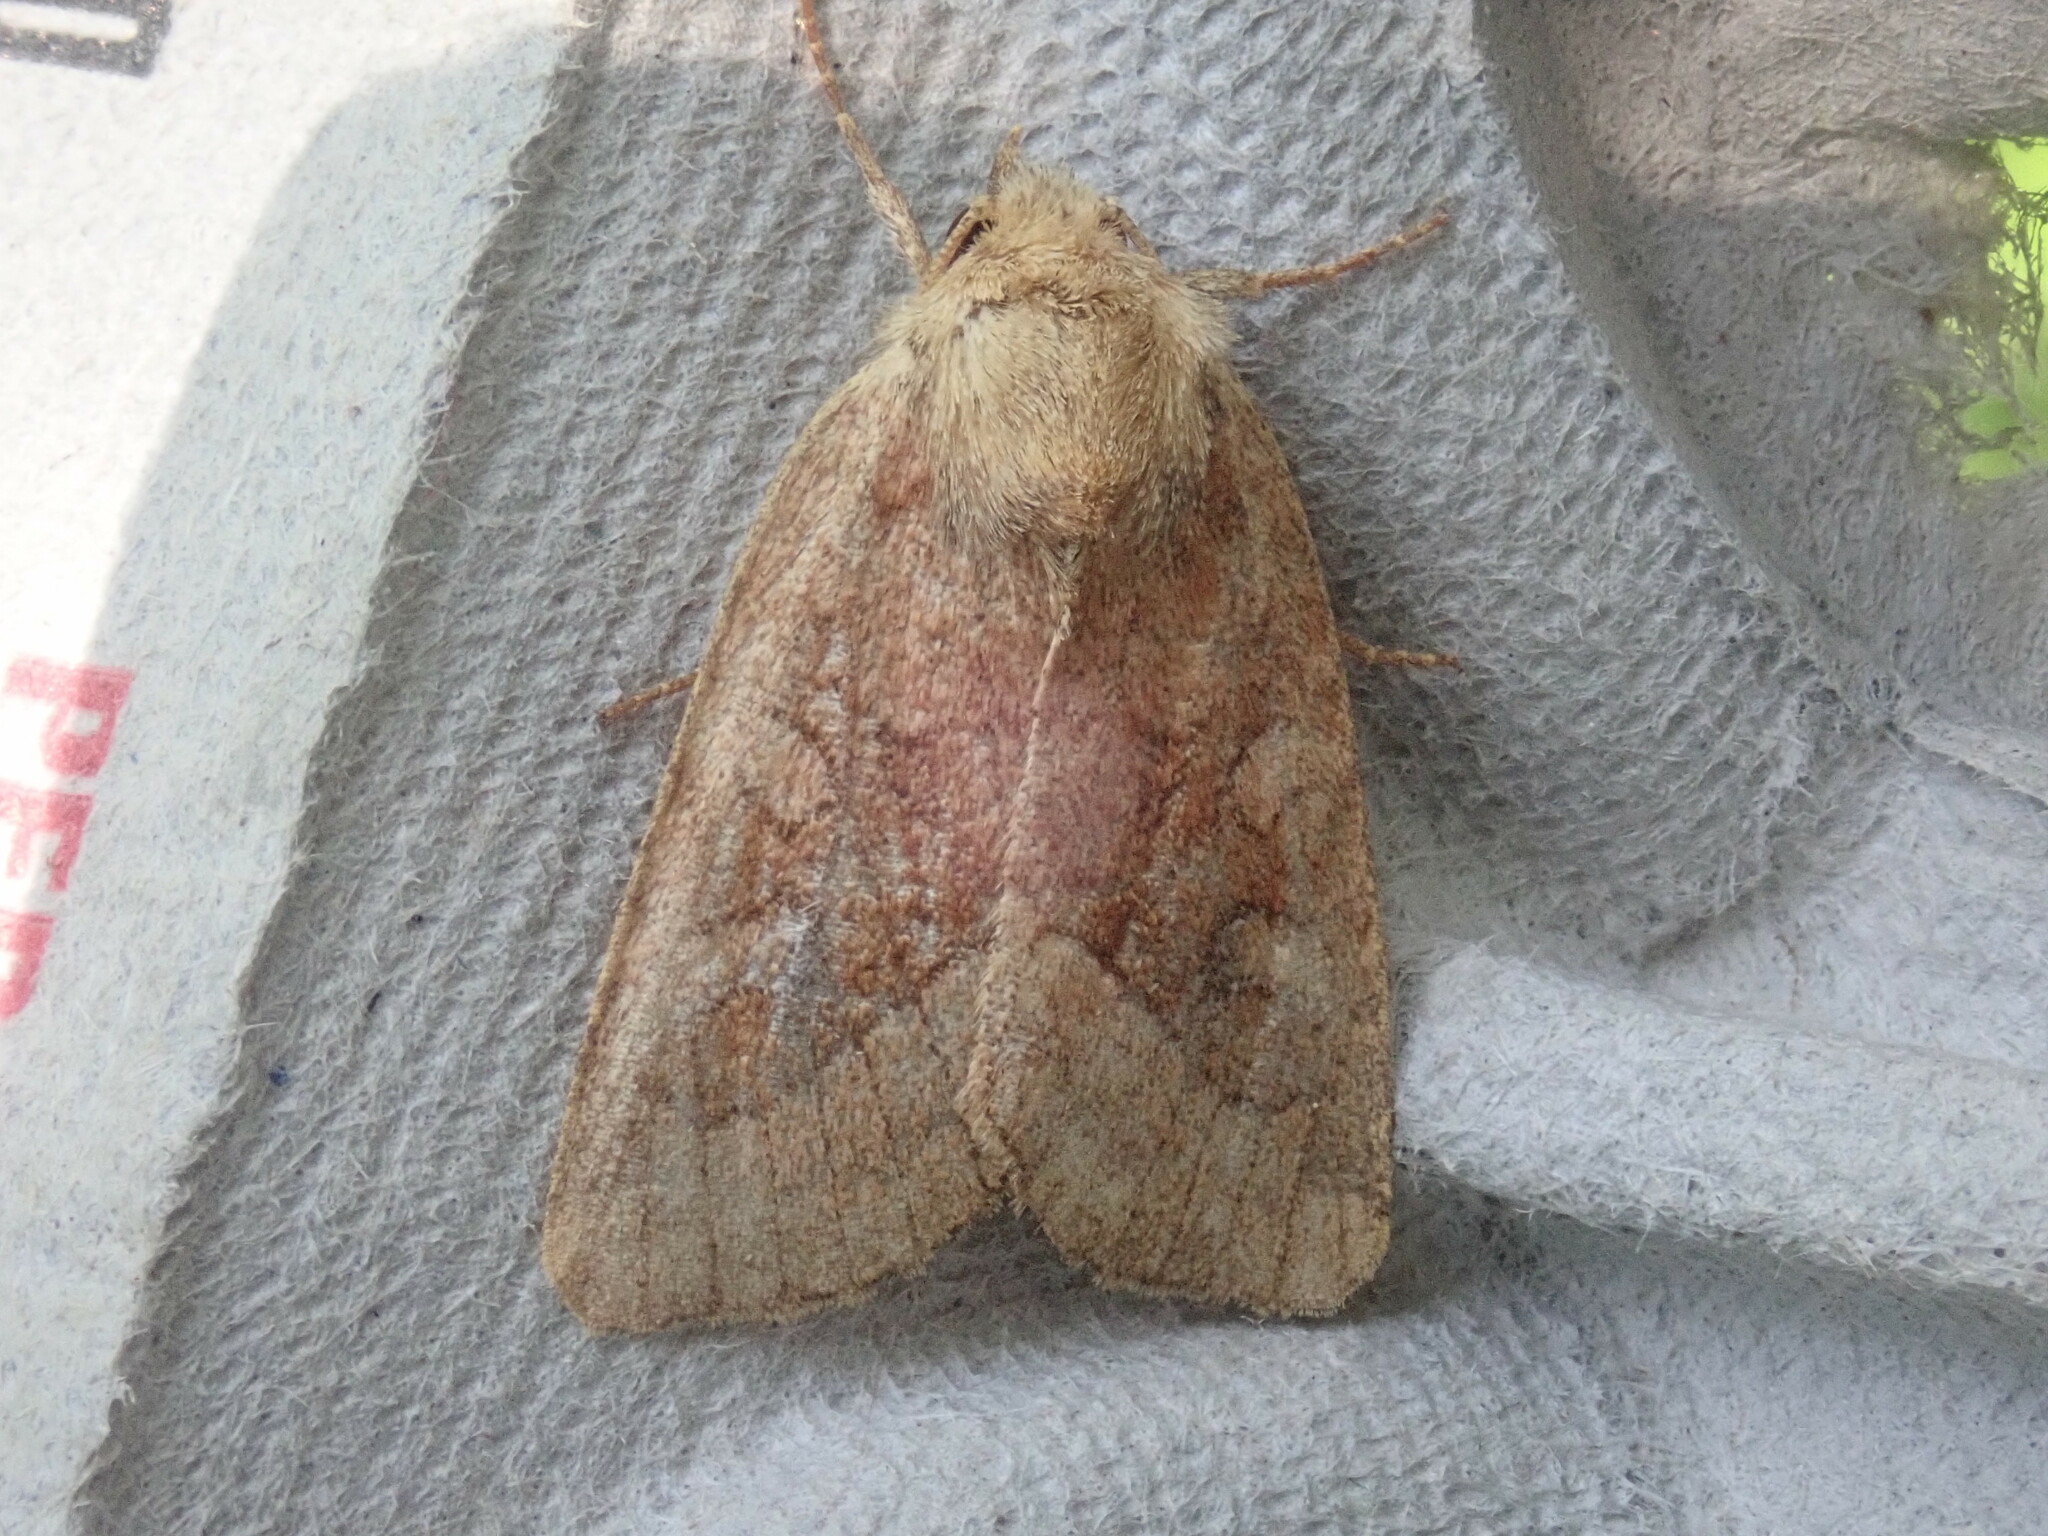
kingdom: Animalia
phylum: Arthropoda
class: Insecta
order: Lepidoptera
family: Noctuidae
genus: Lacinipolia
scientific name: Lacinipolia lorea
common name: Bridled arches moth
